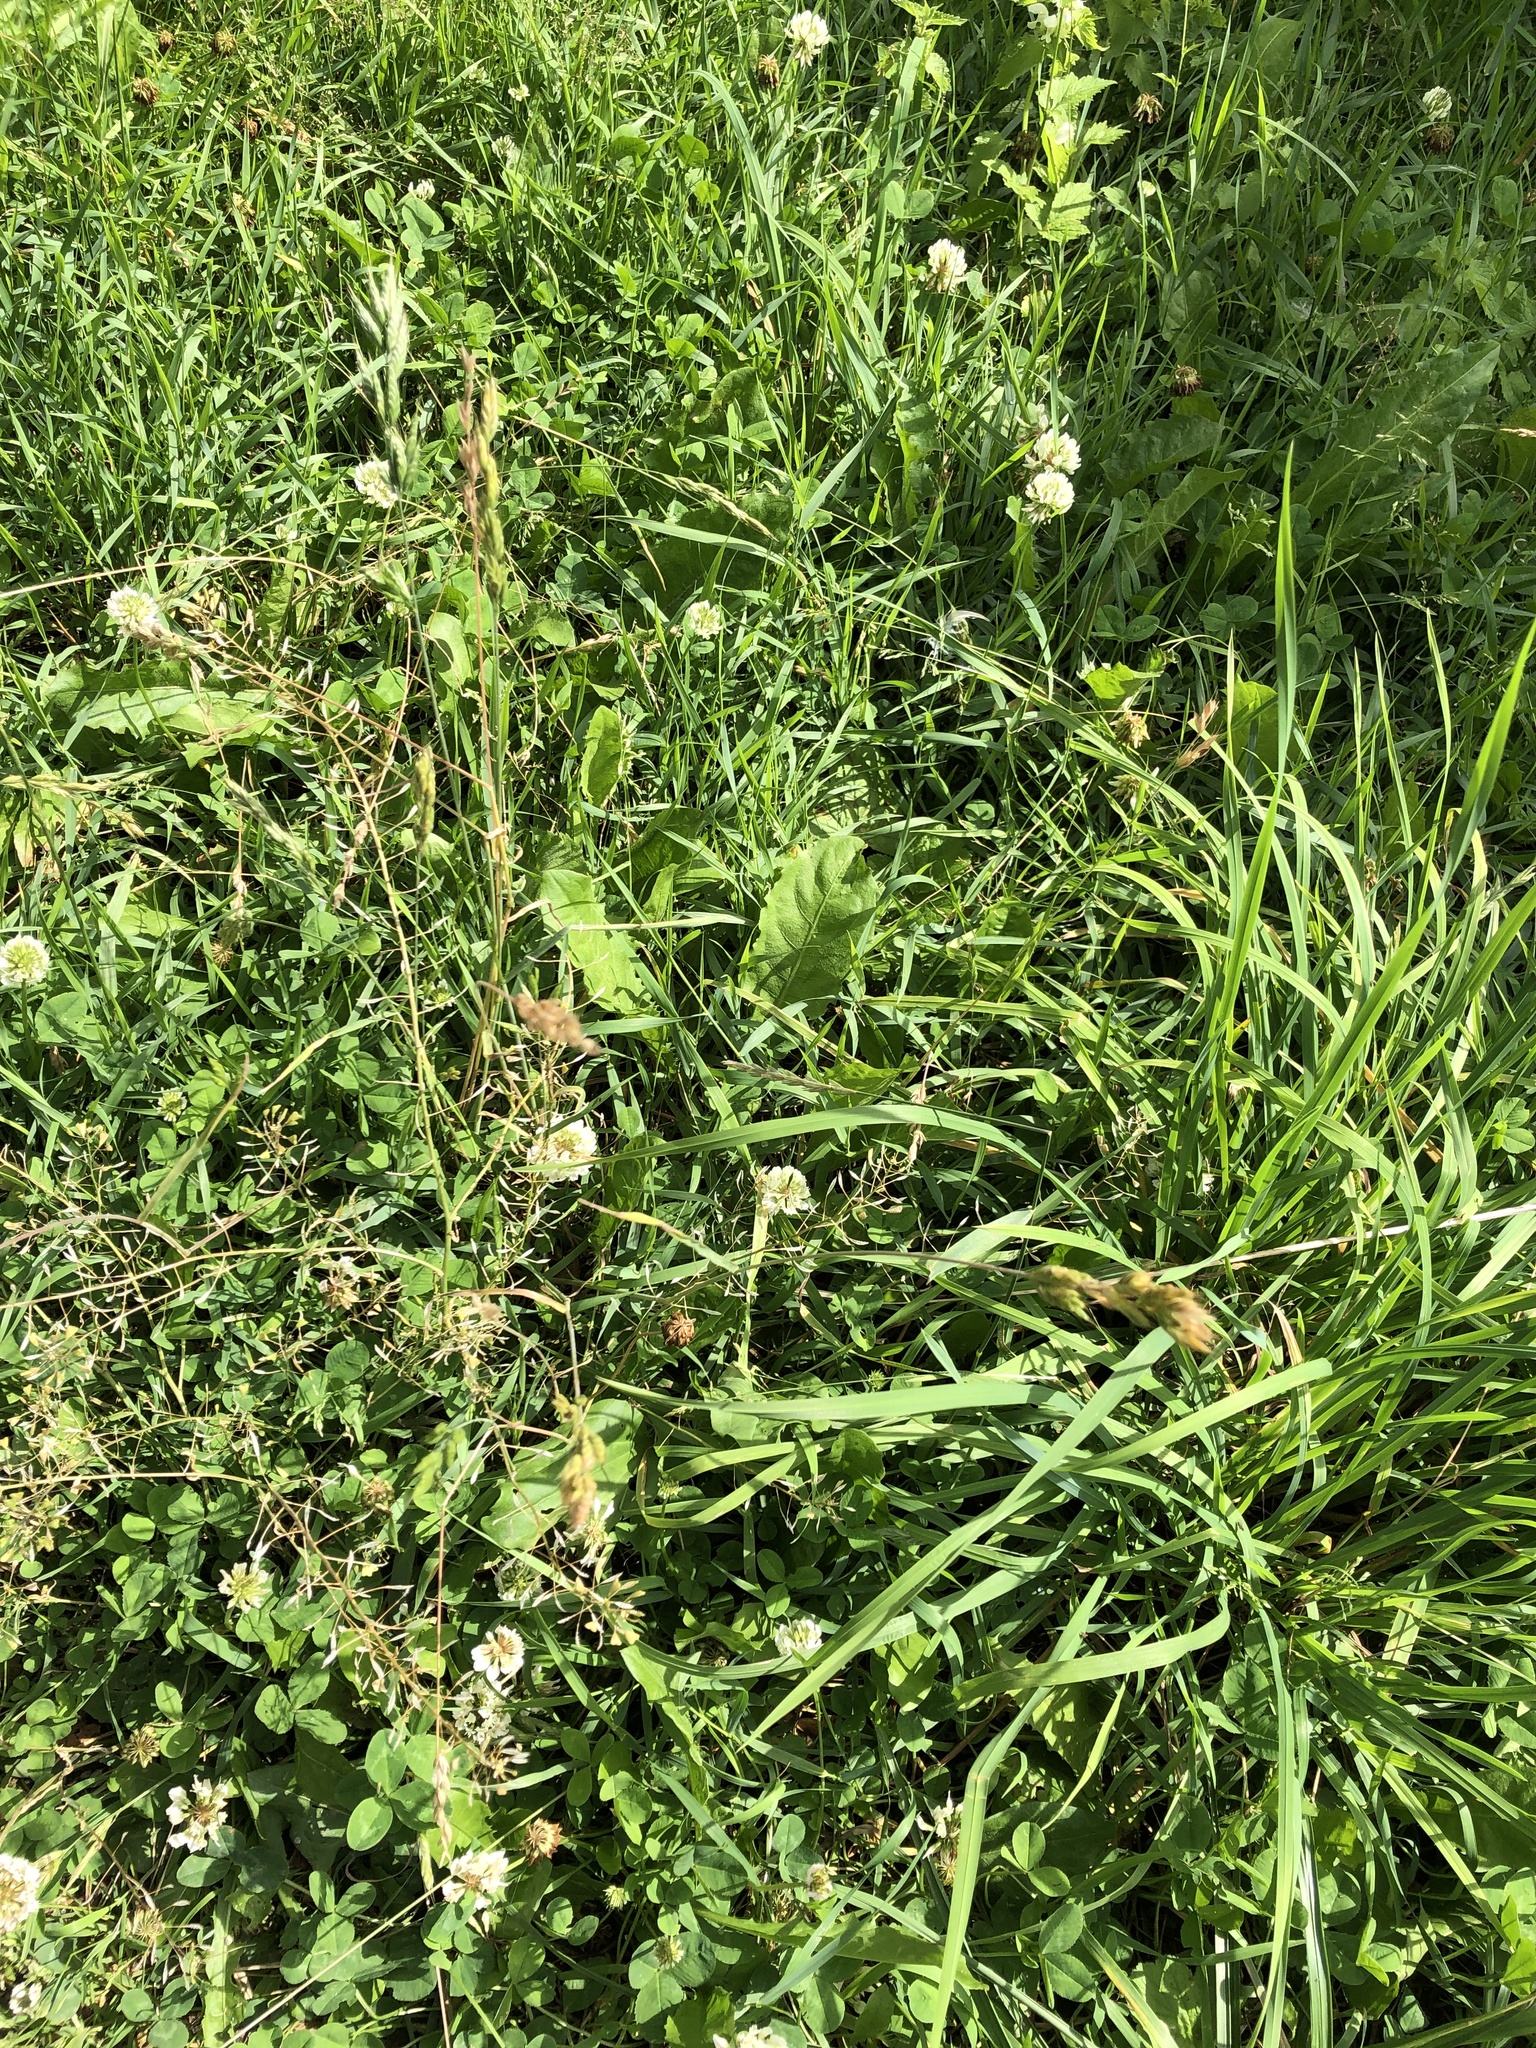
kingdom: Plantae
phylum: Tracheophyta
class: Liliopsida
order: Poales
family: Poaceae
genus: Bromus
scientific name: Bromus hordeaceus
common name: Soft brome
